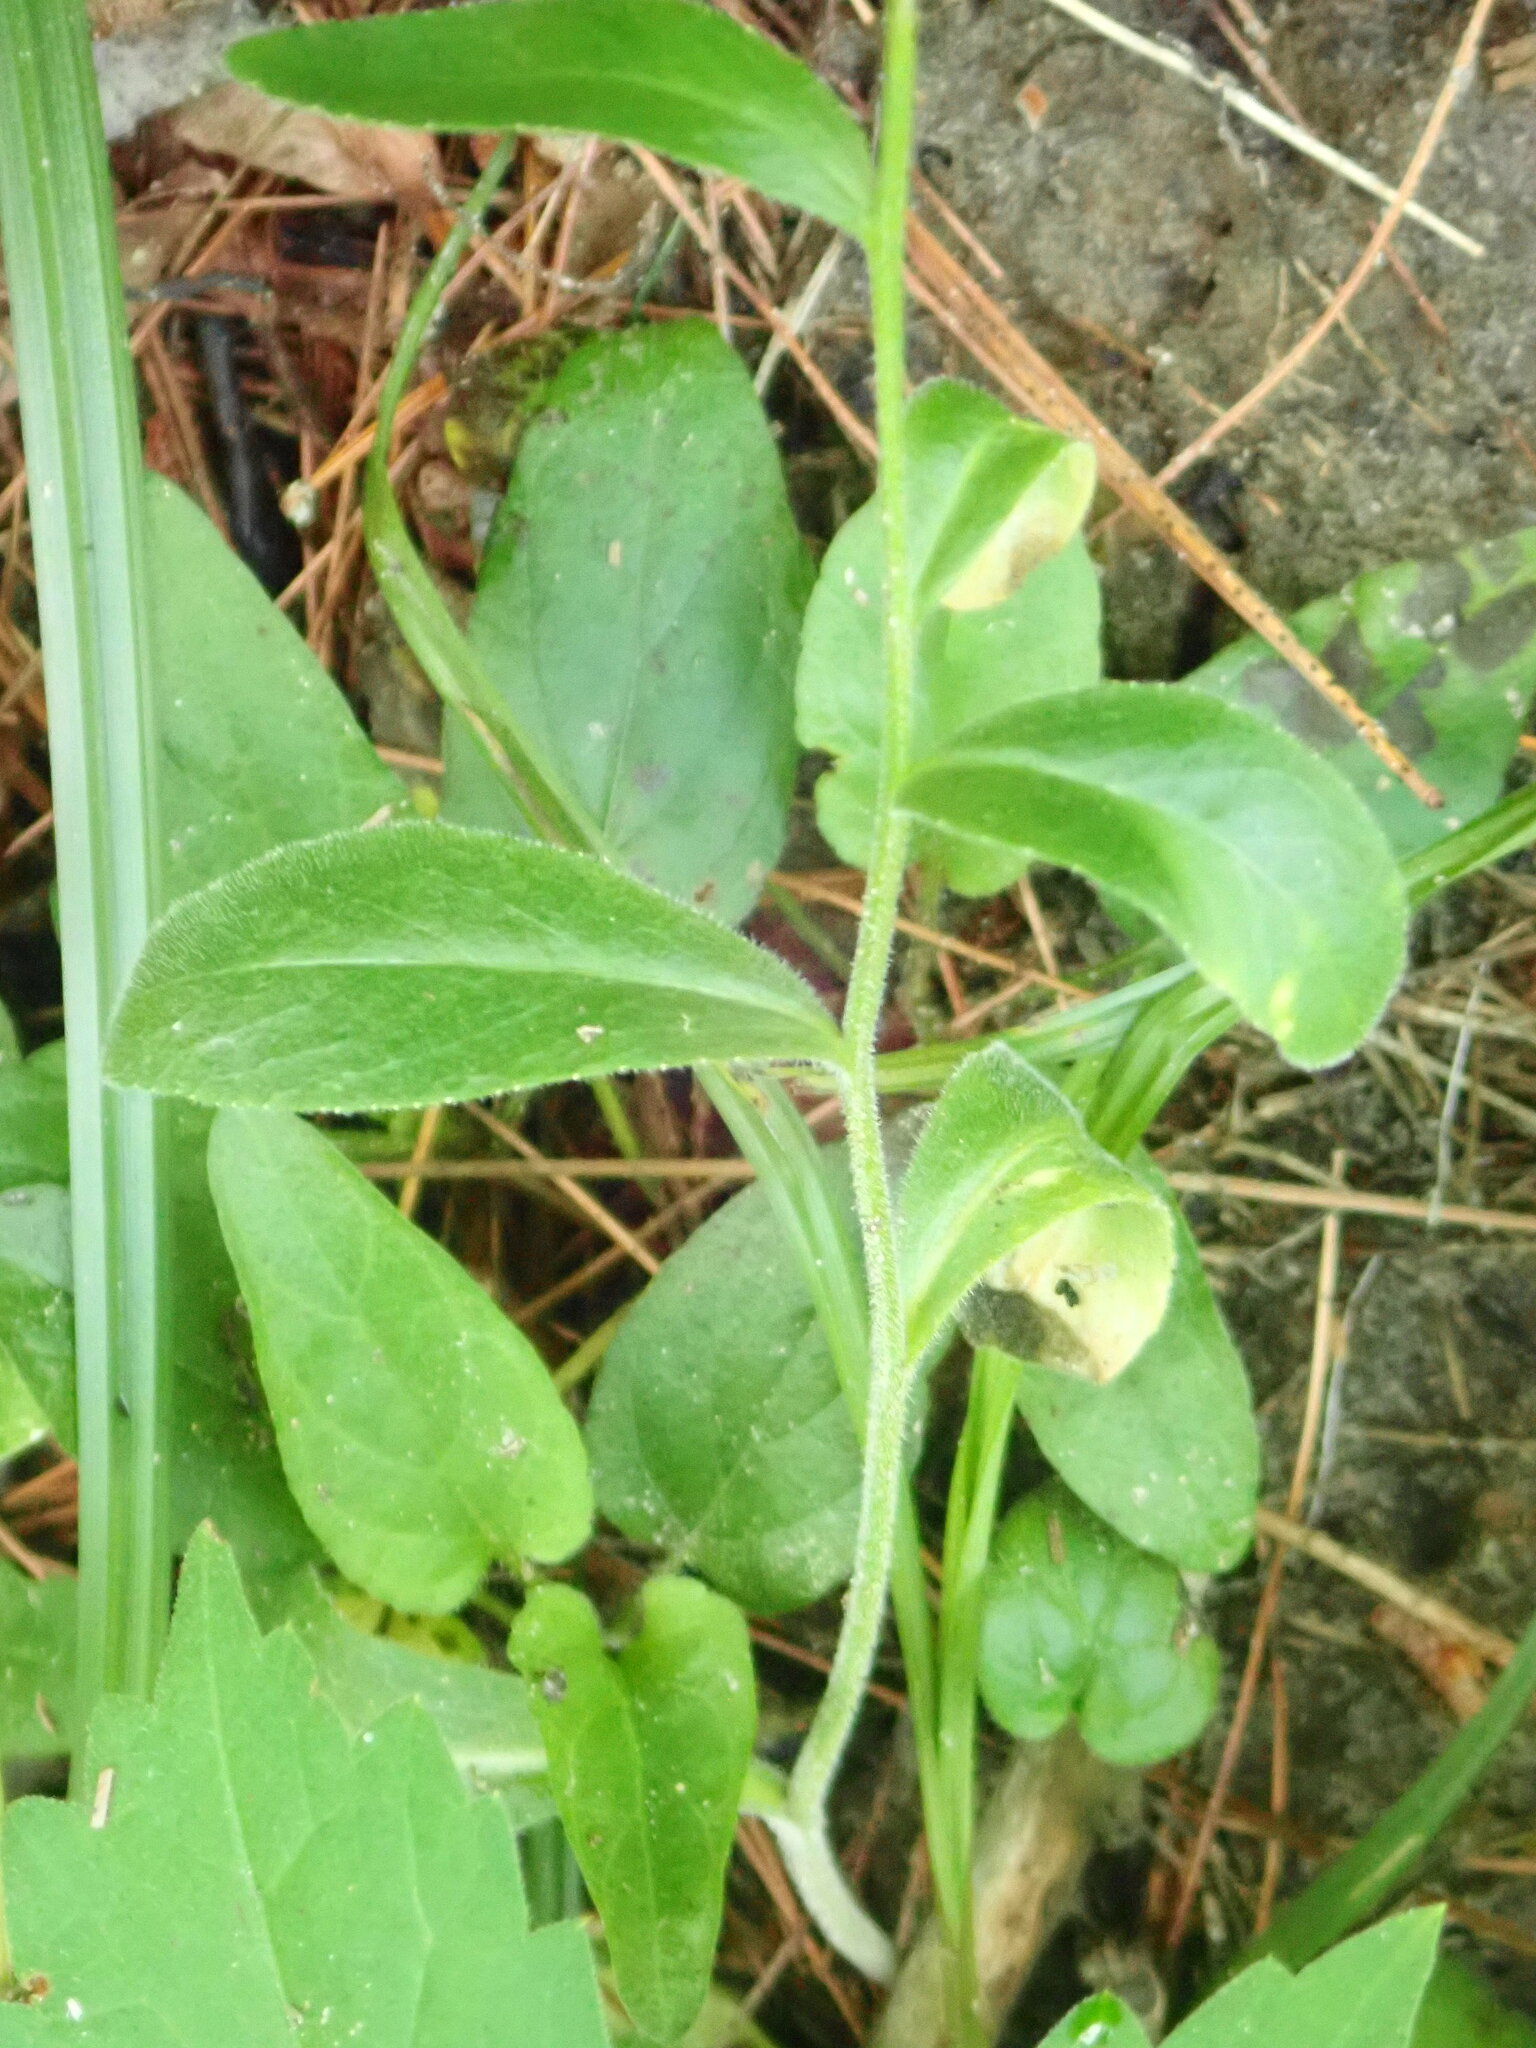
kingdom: Plantae
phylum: Tracheophyta
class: Magnoliopsida
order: Asterales
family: Campanulaceae
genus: Lobelia
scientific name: Lobelia spicata
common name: Pale-spike lobelia
